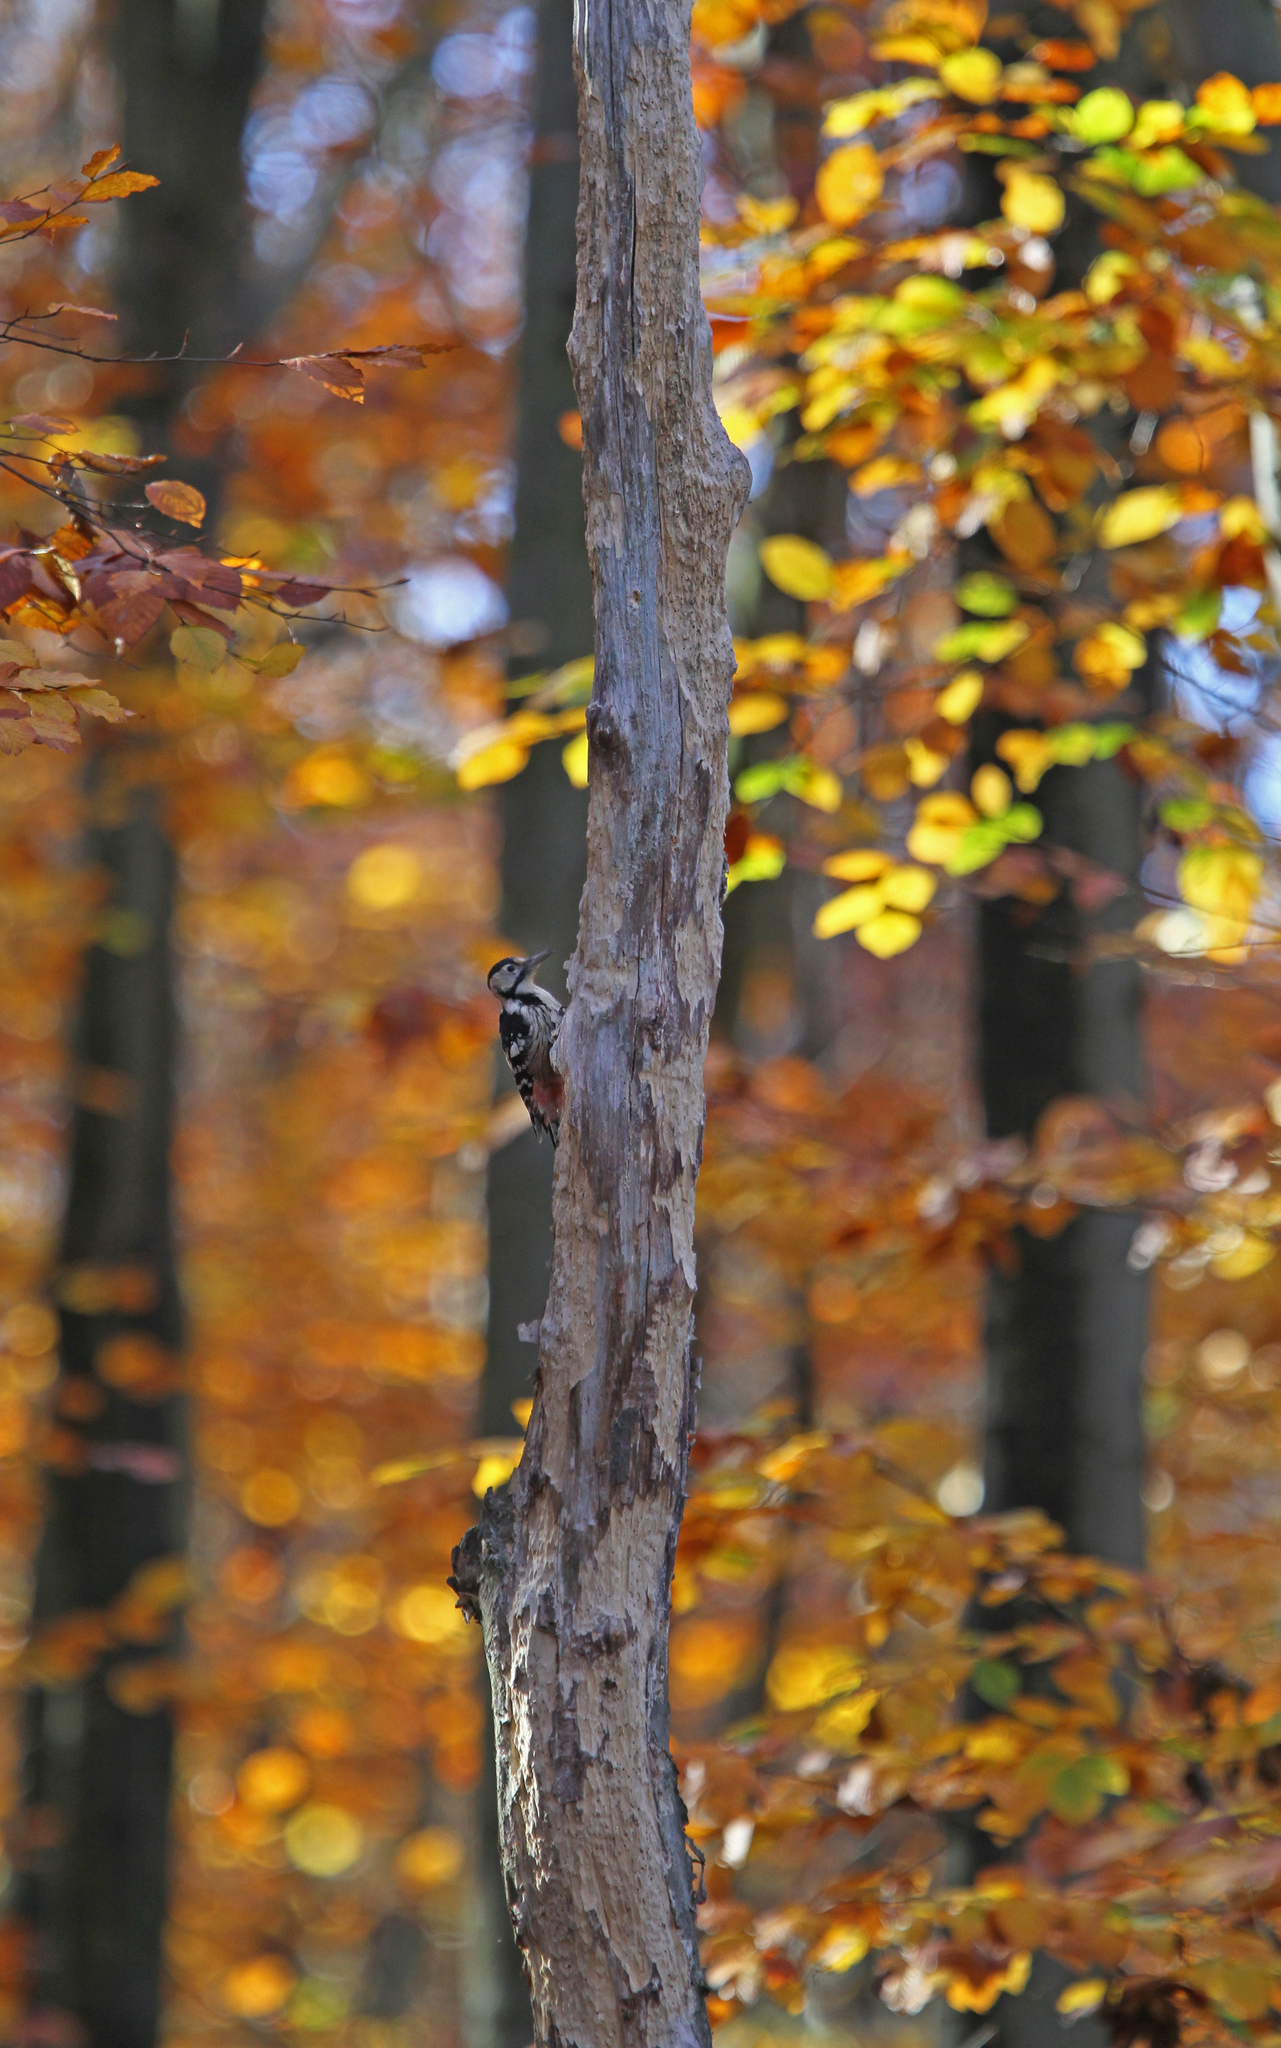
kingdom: Animalia
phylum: Chordata
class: Aves
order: Piciformes
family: Picidae
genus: Dendrocopos
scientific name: Dendrocopos leucotos
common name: White-backed woodpecker
